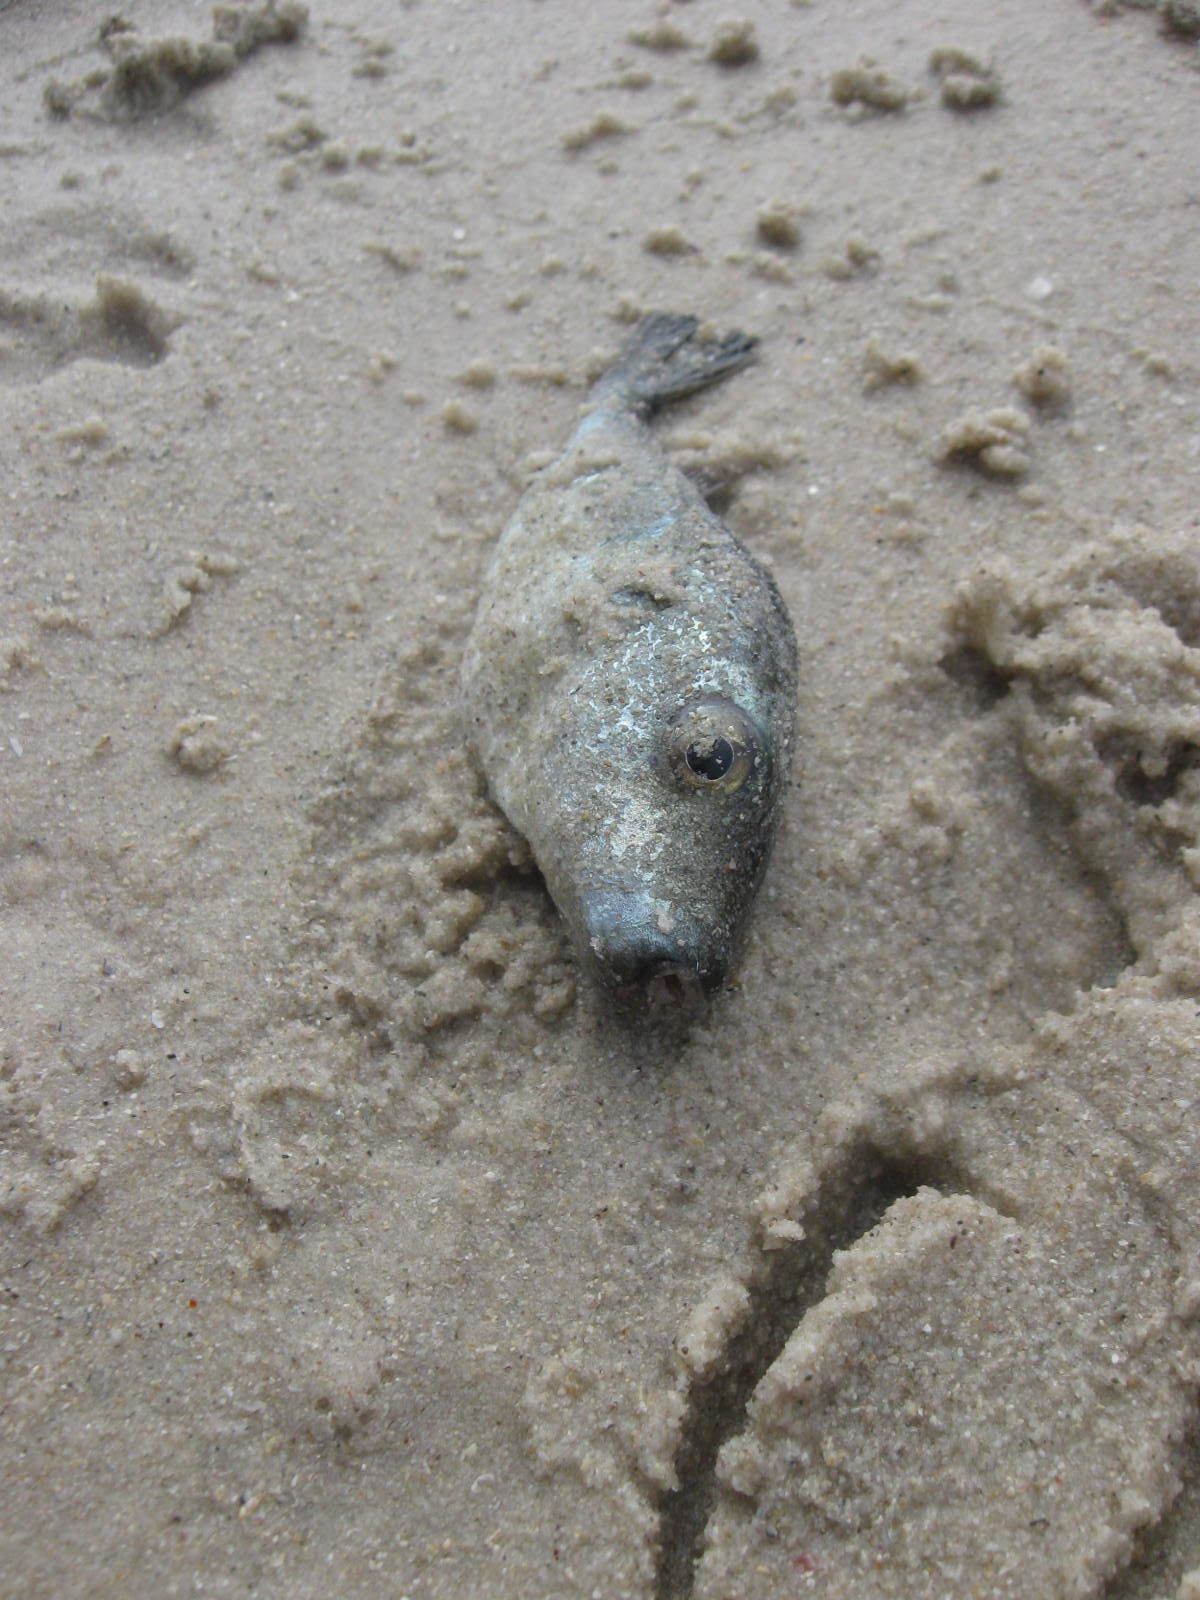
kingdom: Animalia
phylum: Chordata
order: Tetraodontiformes
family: Tetraodontidae
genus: Pelagocephalus
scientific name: Pelagocephalus marki
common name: Rippled blaasop
